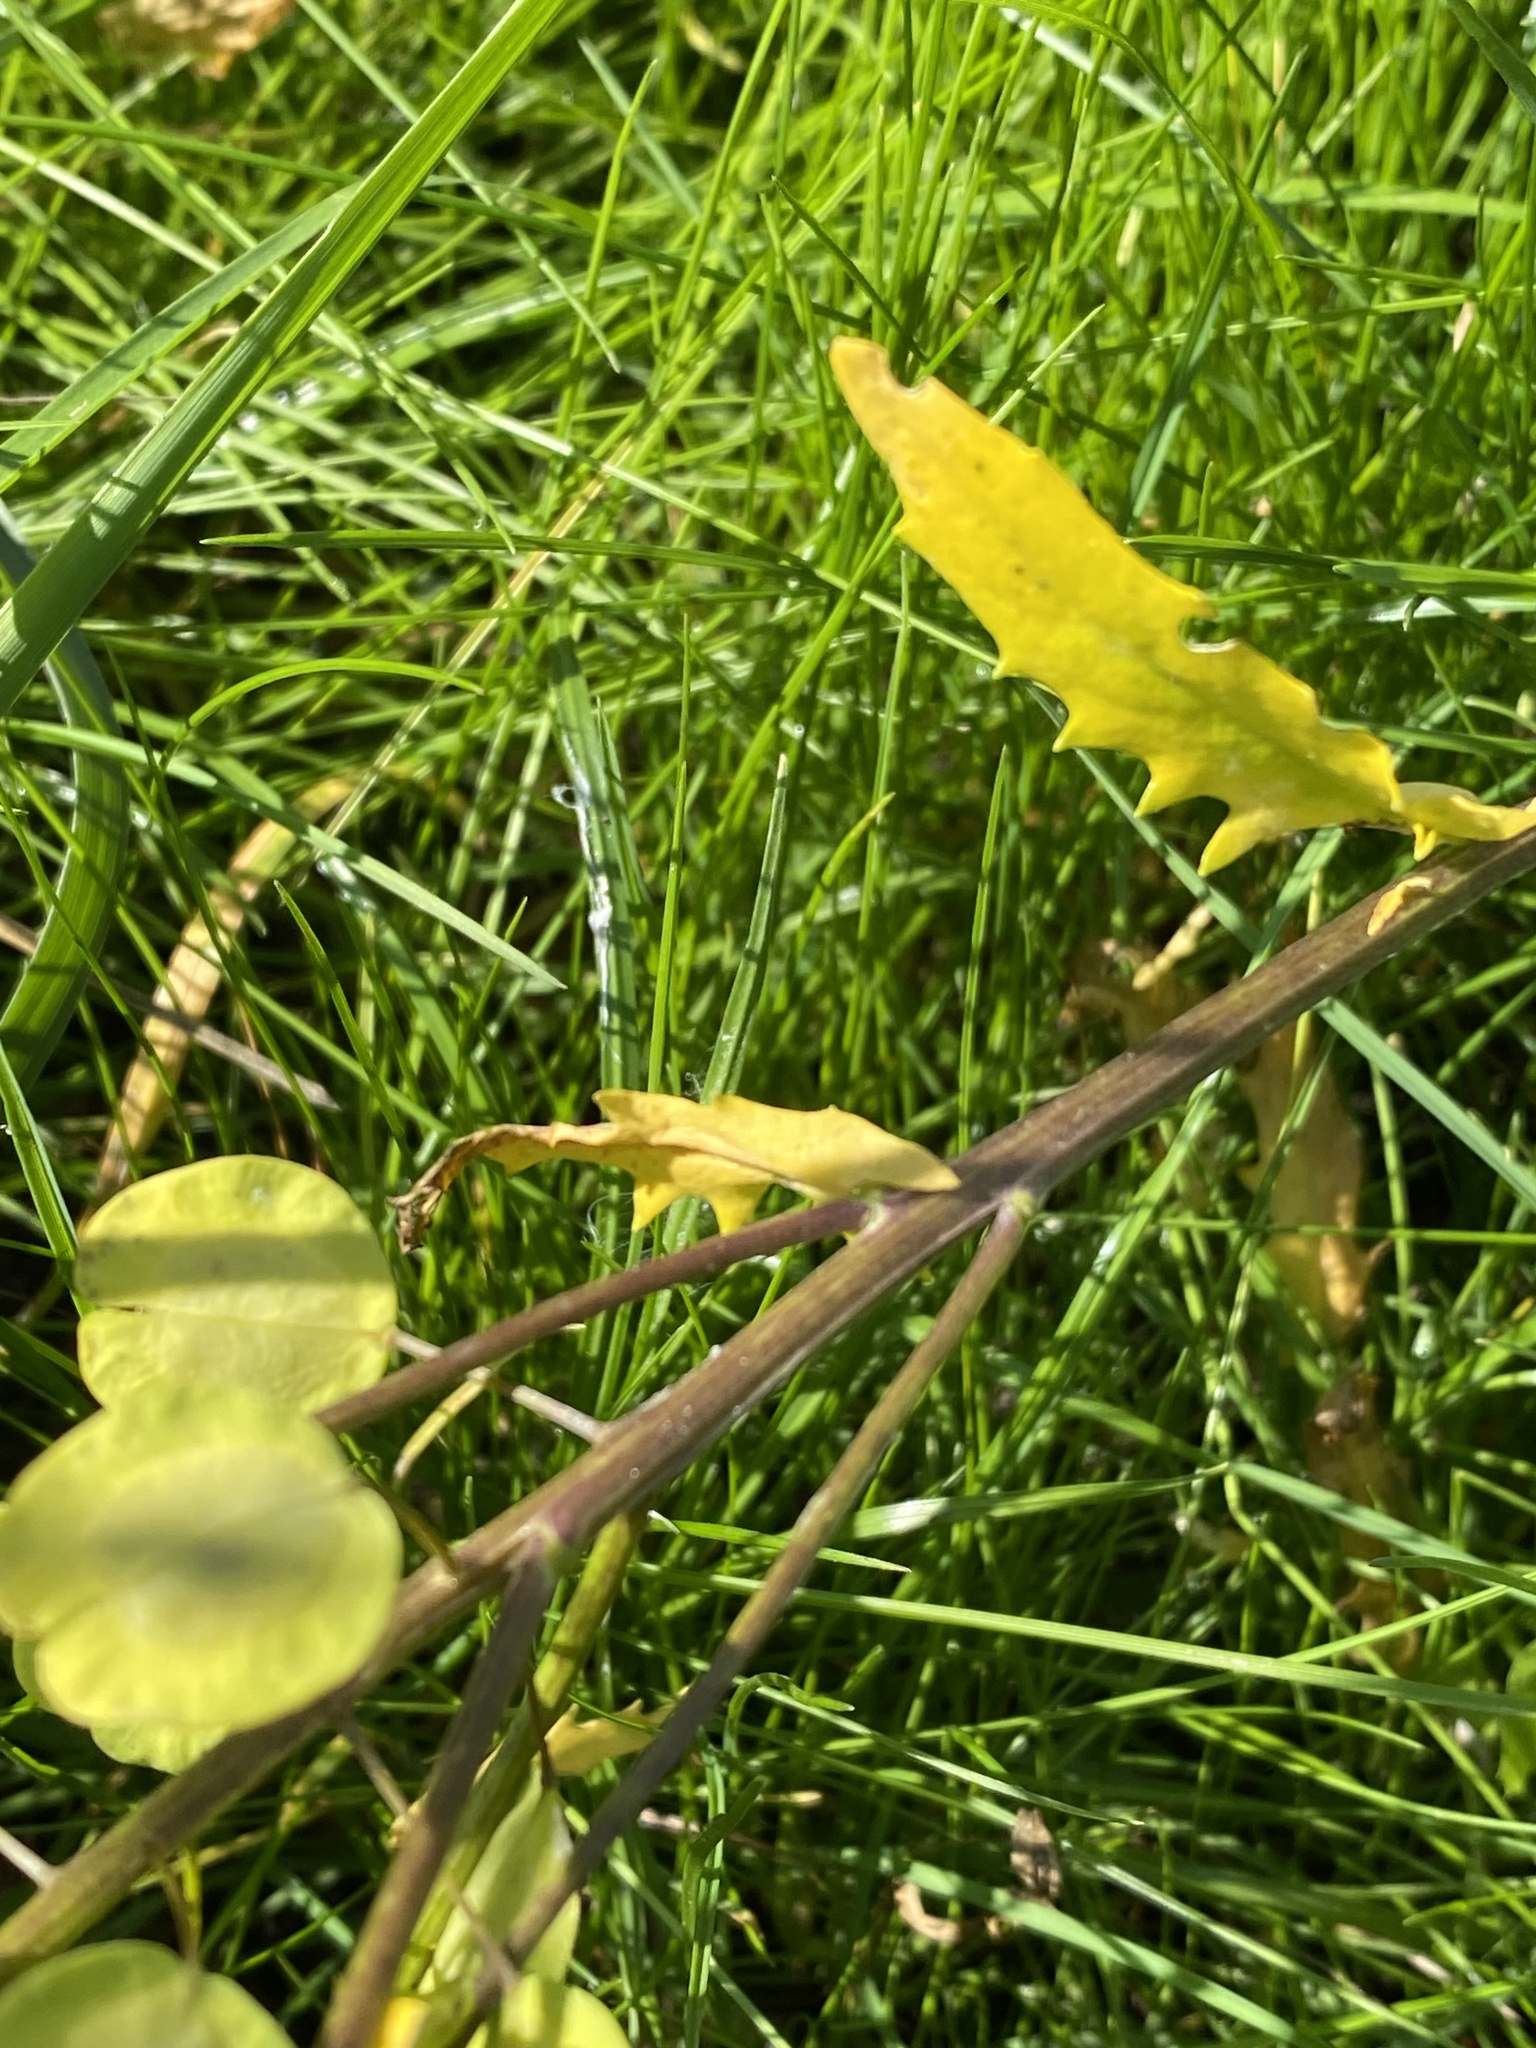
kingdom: Plantae
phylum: Tracheophyta
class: Magnoliopsida
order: Brassicales
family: Brassicaceae
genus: Thlaspi
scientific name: Thlaspi arvense
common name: Field pennycress
